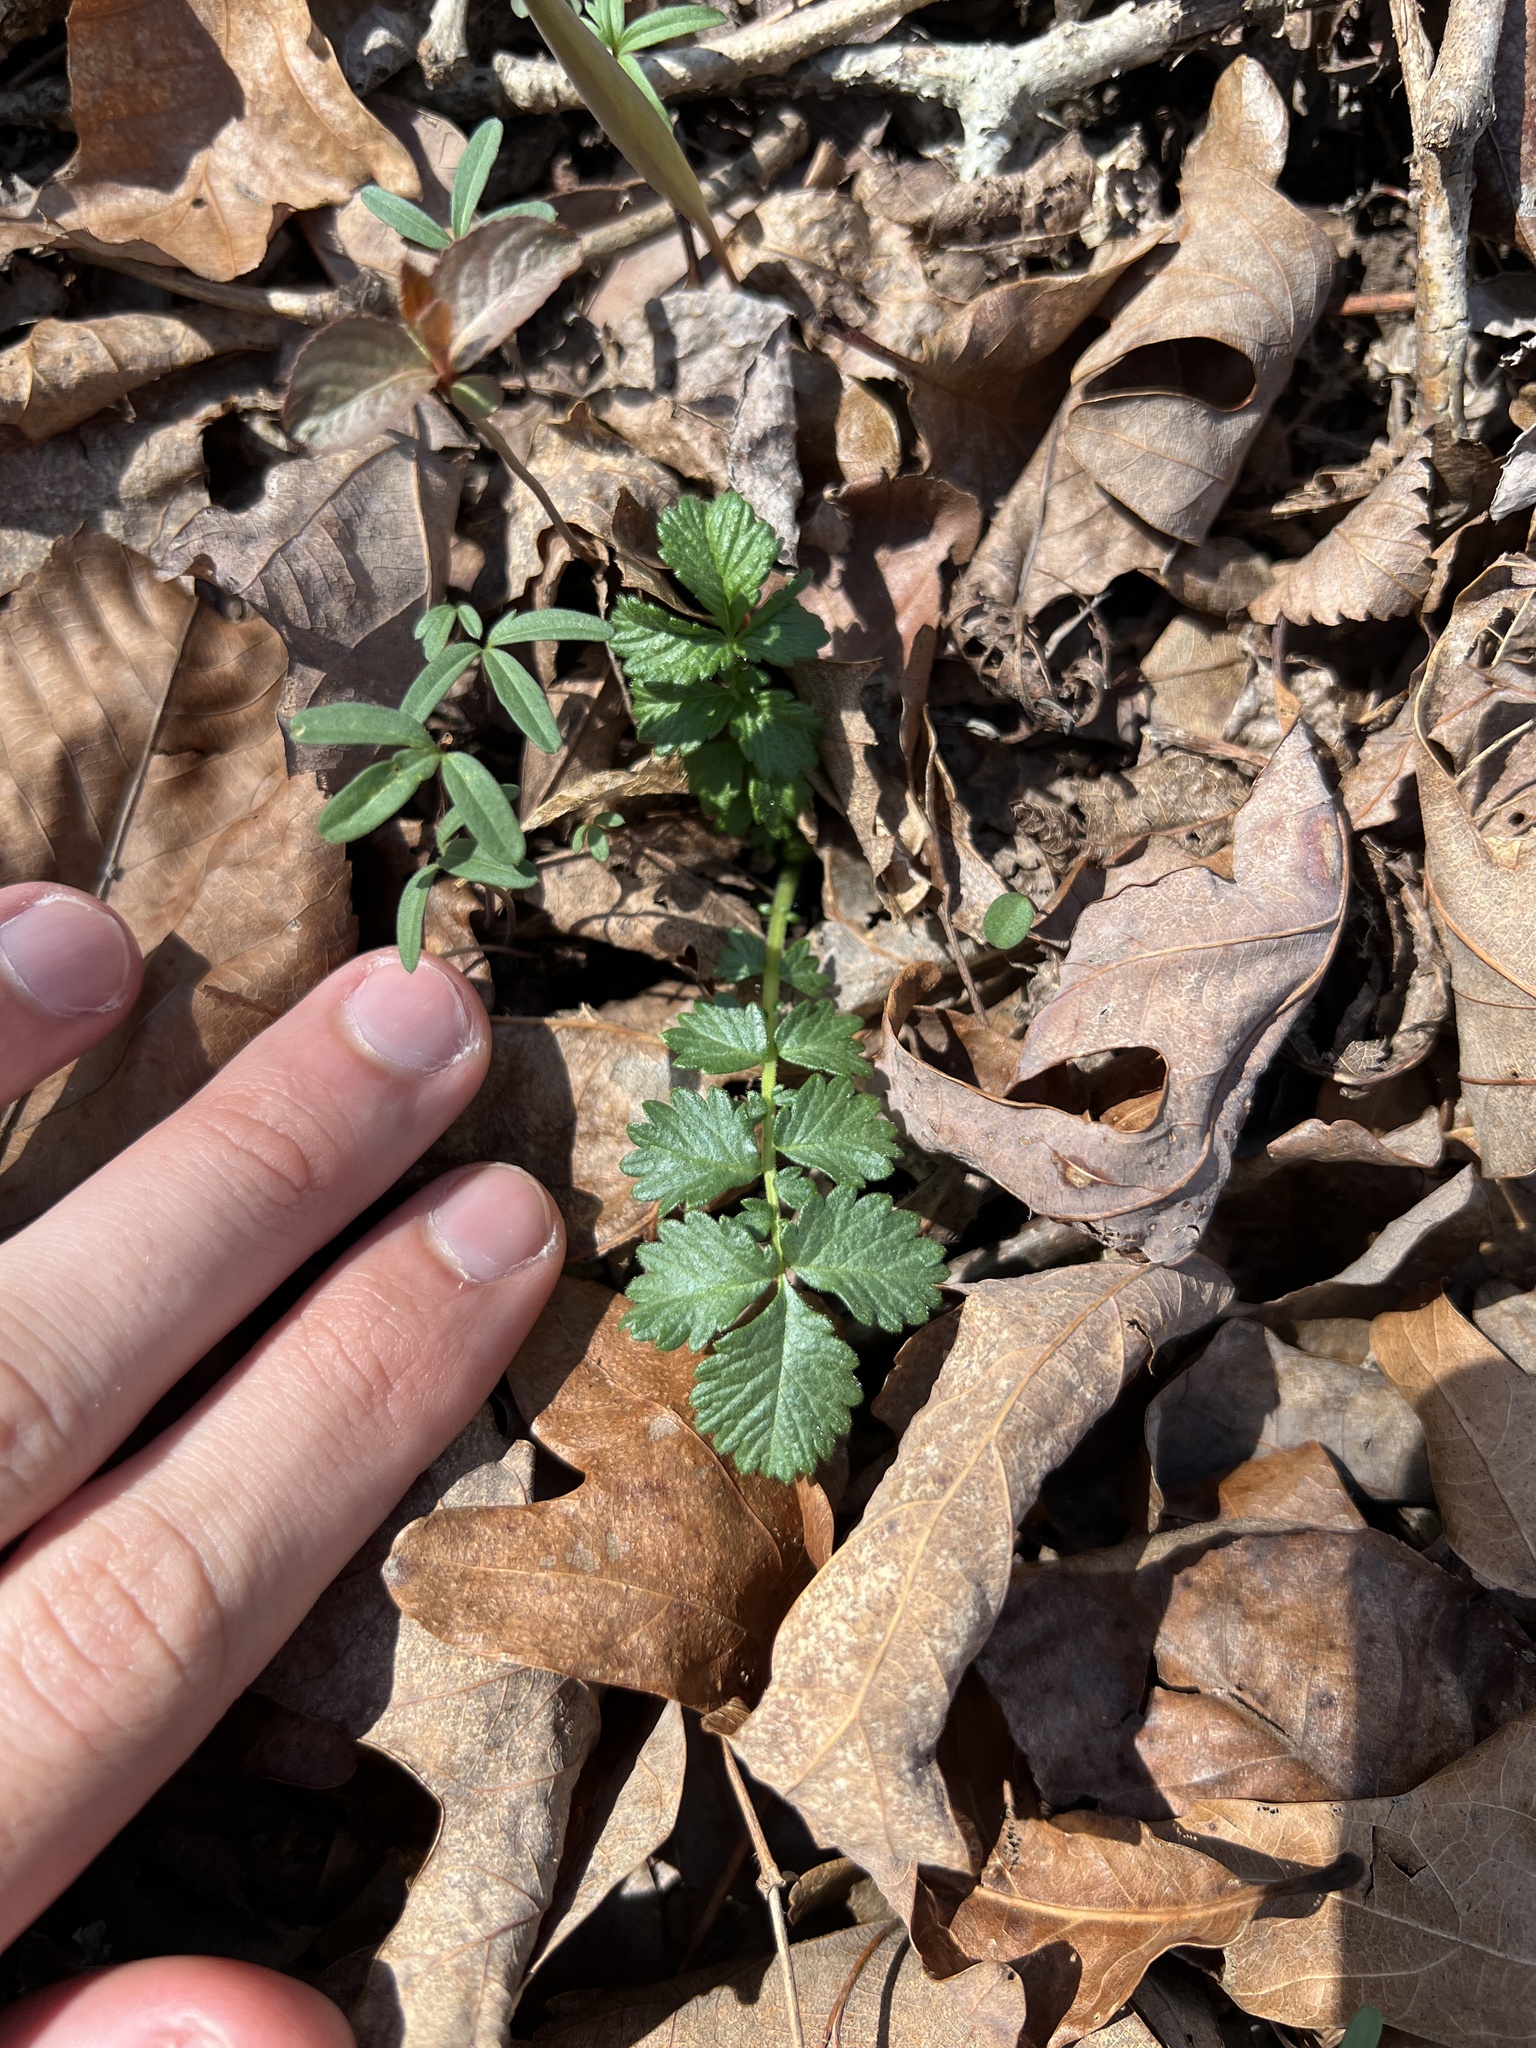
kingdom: Plantae
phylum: Tracheophyta
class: Magnoliopsida
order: Rosales
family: Rosaceae
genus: Agrimonia
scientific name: Agrimonia rostellata
